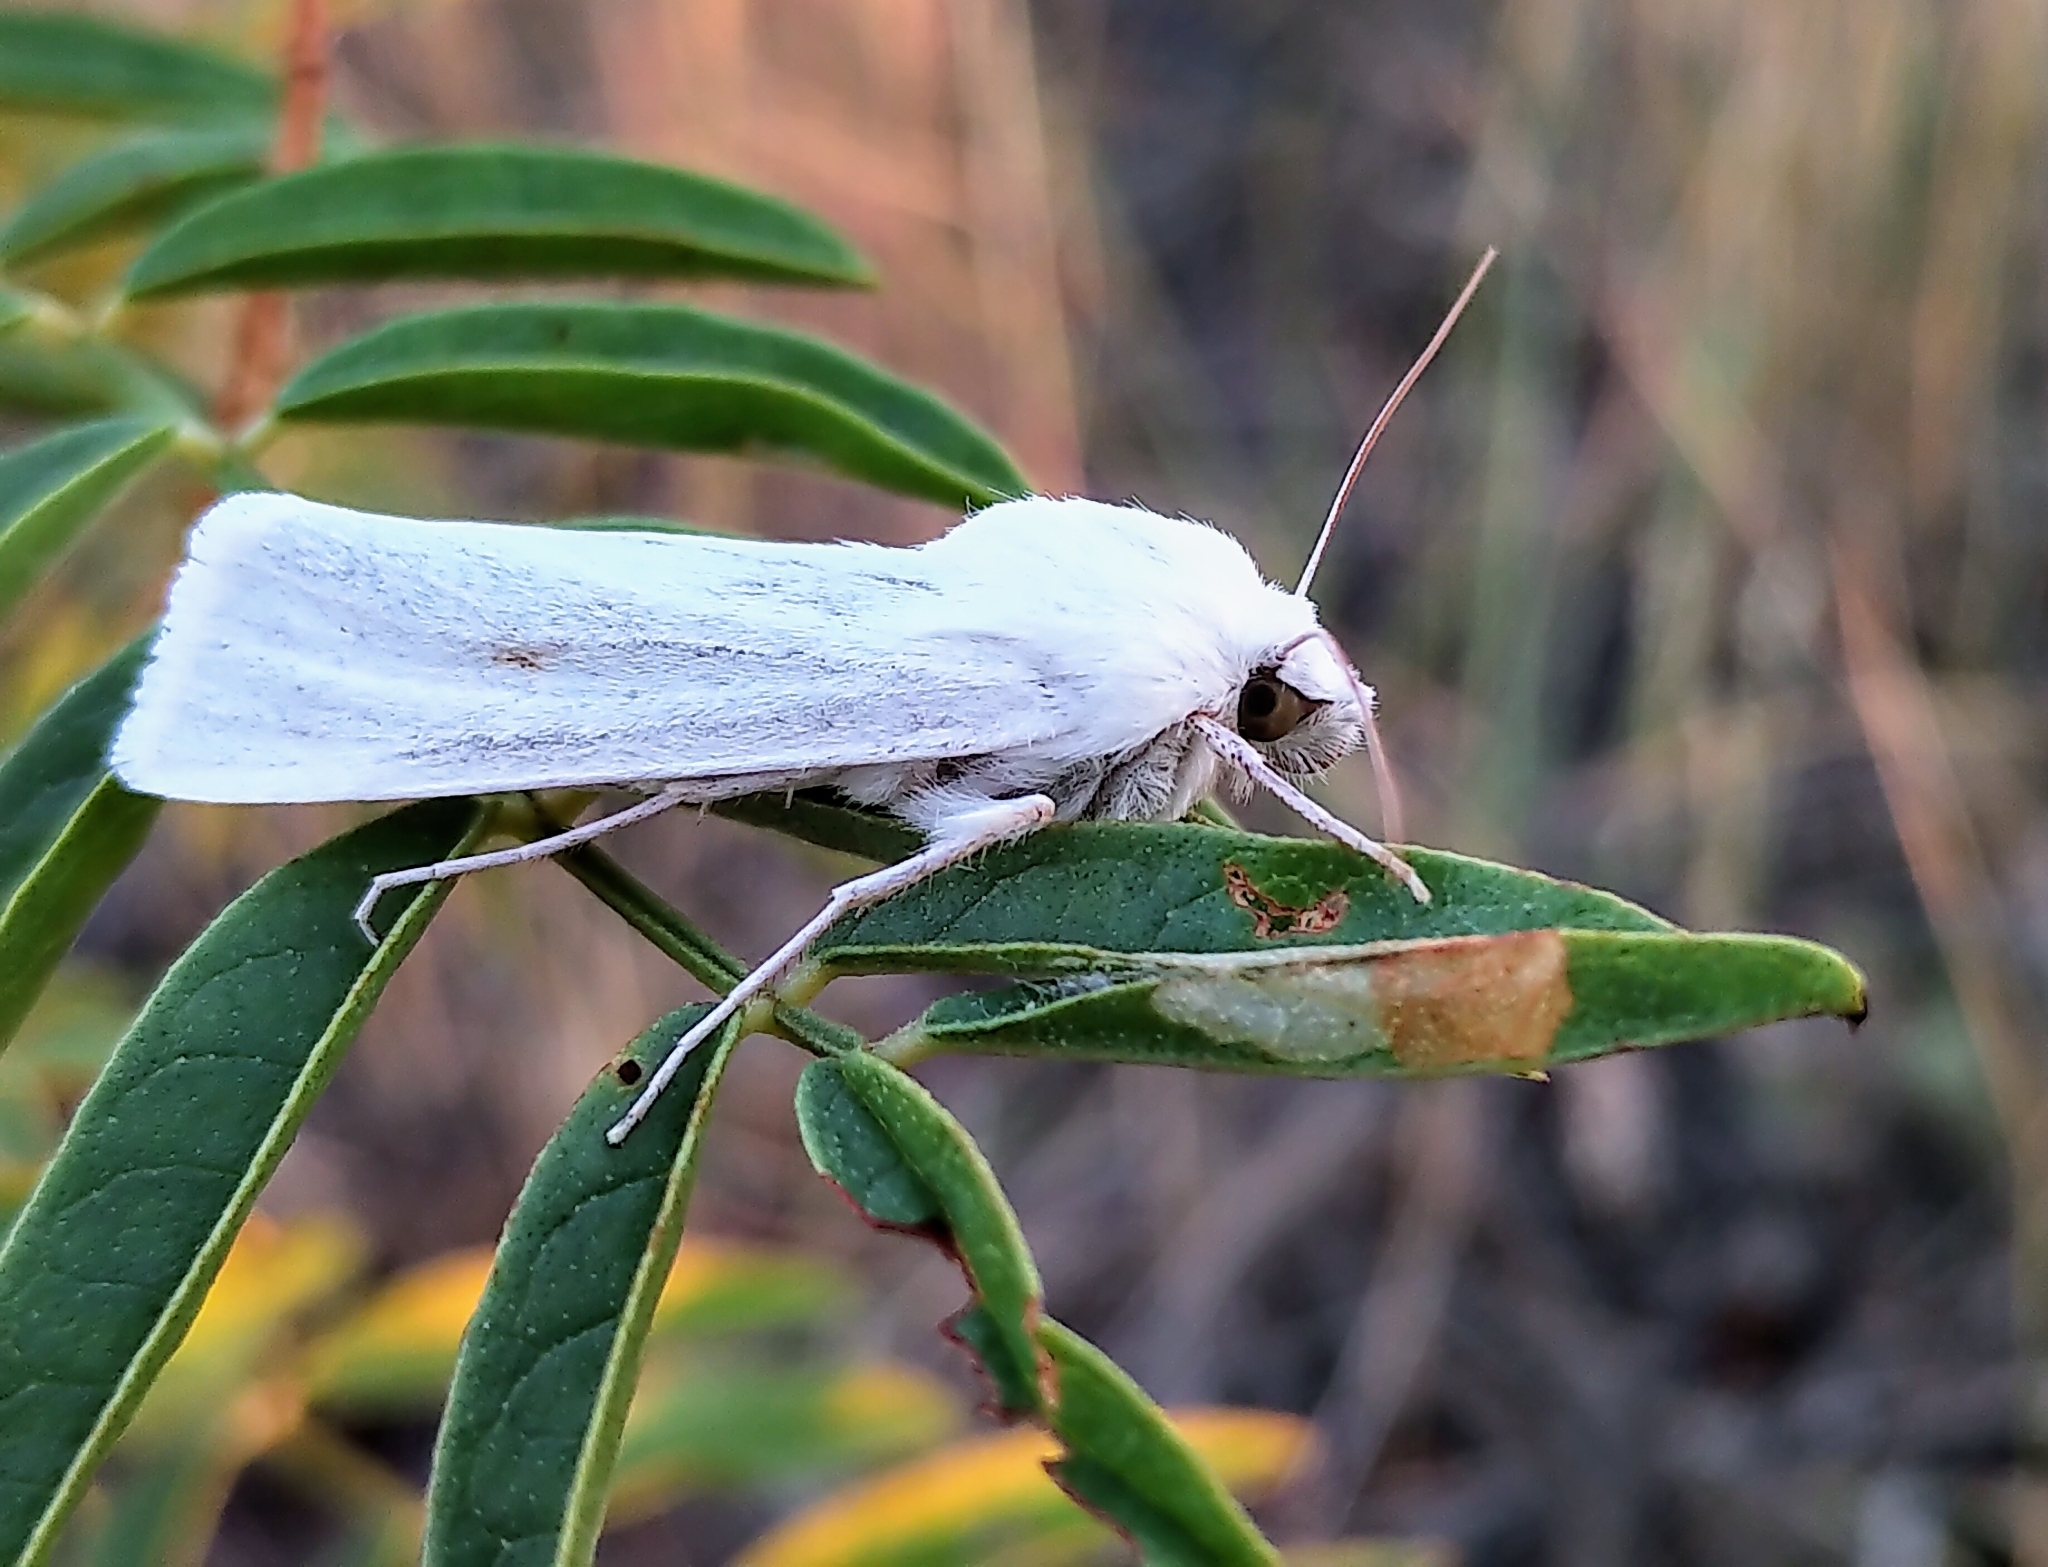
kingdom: Animalia
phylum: Arthropoda
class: Insecta
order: Lepidoptera
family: Noctuidae
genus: Copablepharon
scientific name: Copablepharon viridisparsa
